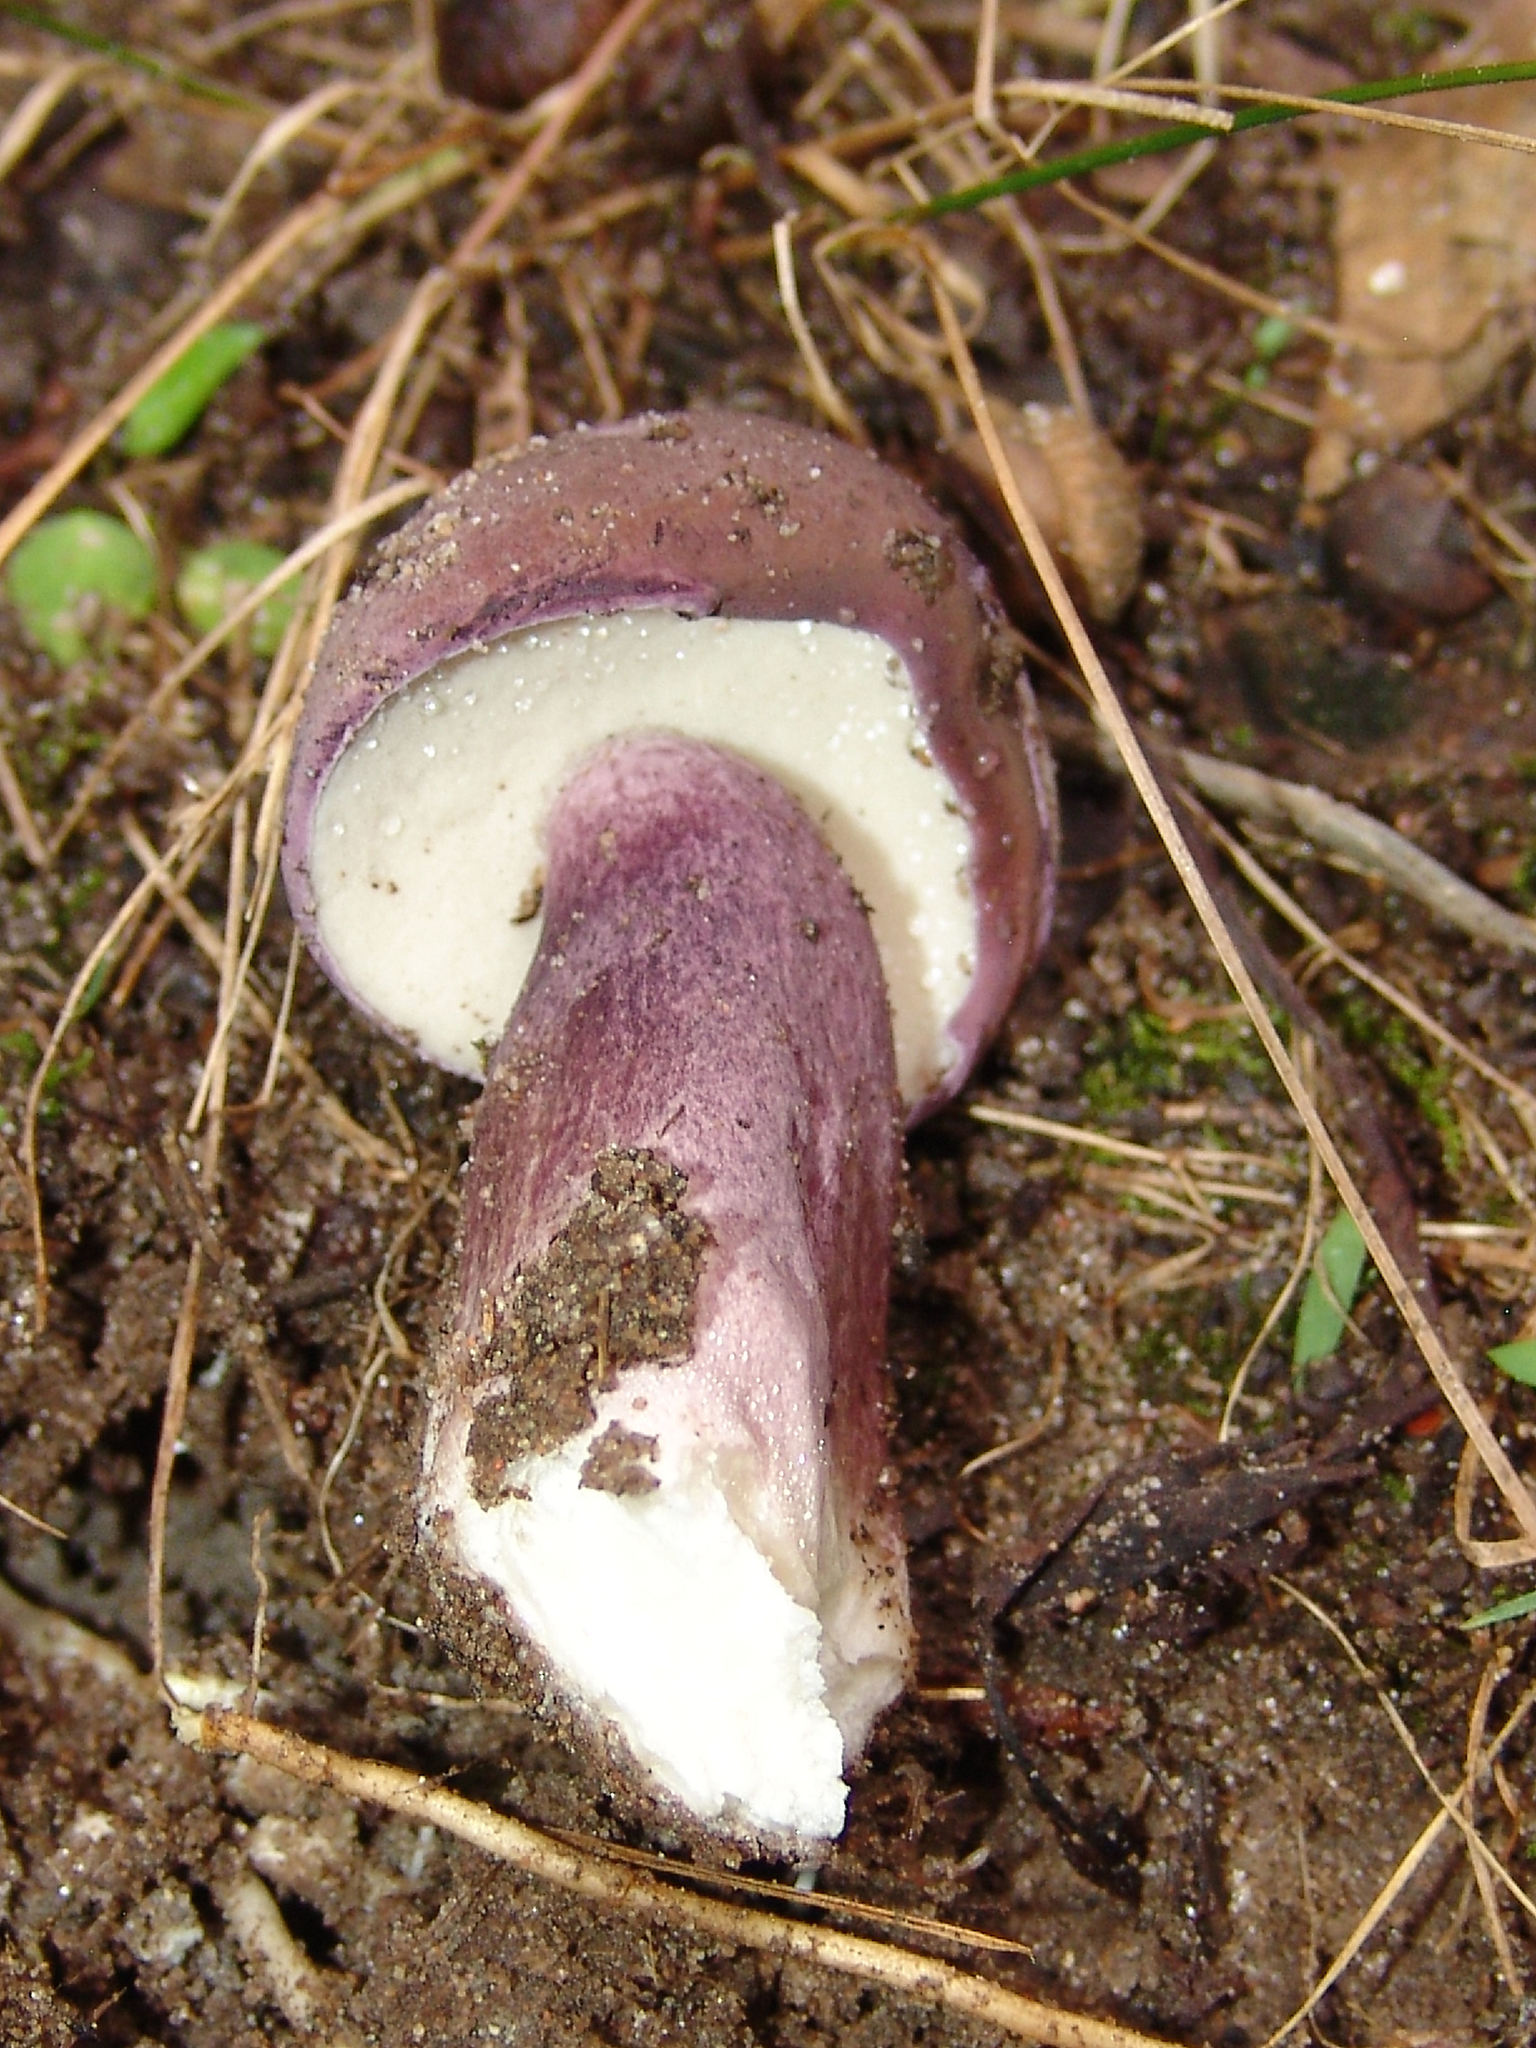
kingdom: Fungi
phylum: Basidiomycota
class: Agaricomycetes
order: Boletales
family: Boletaceae
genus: Tylopilus
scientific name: Tylopilus plumbeoviolaceus
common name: Violet gray bolete
